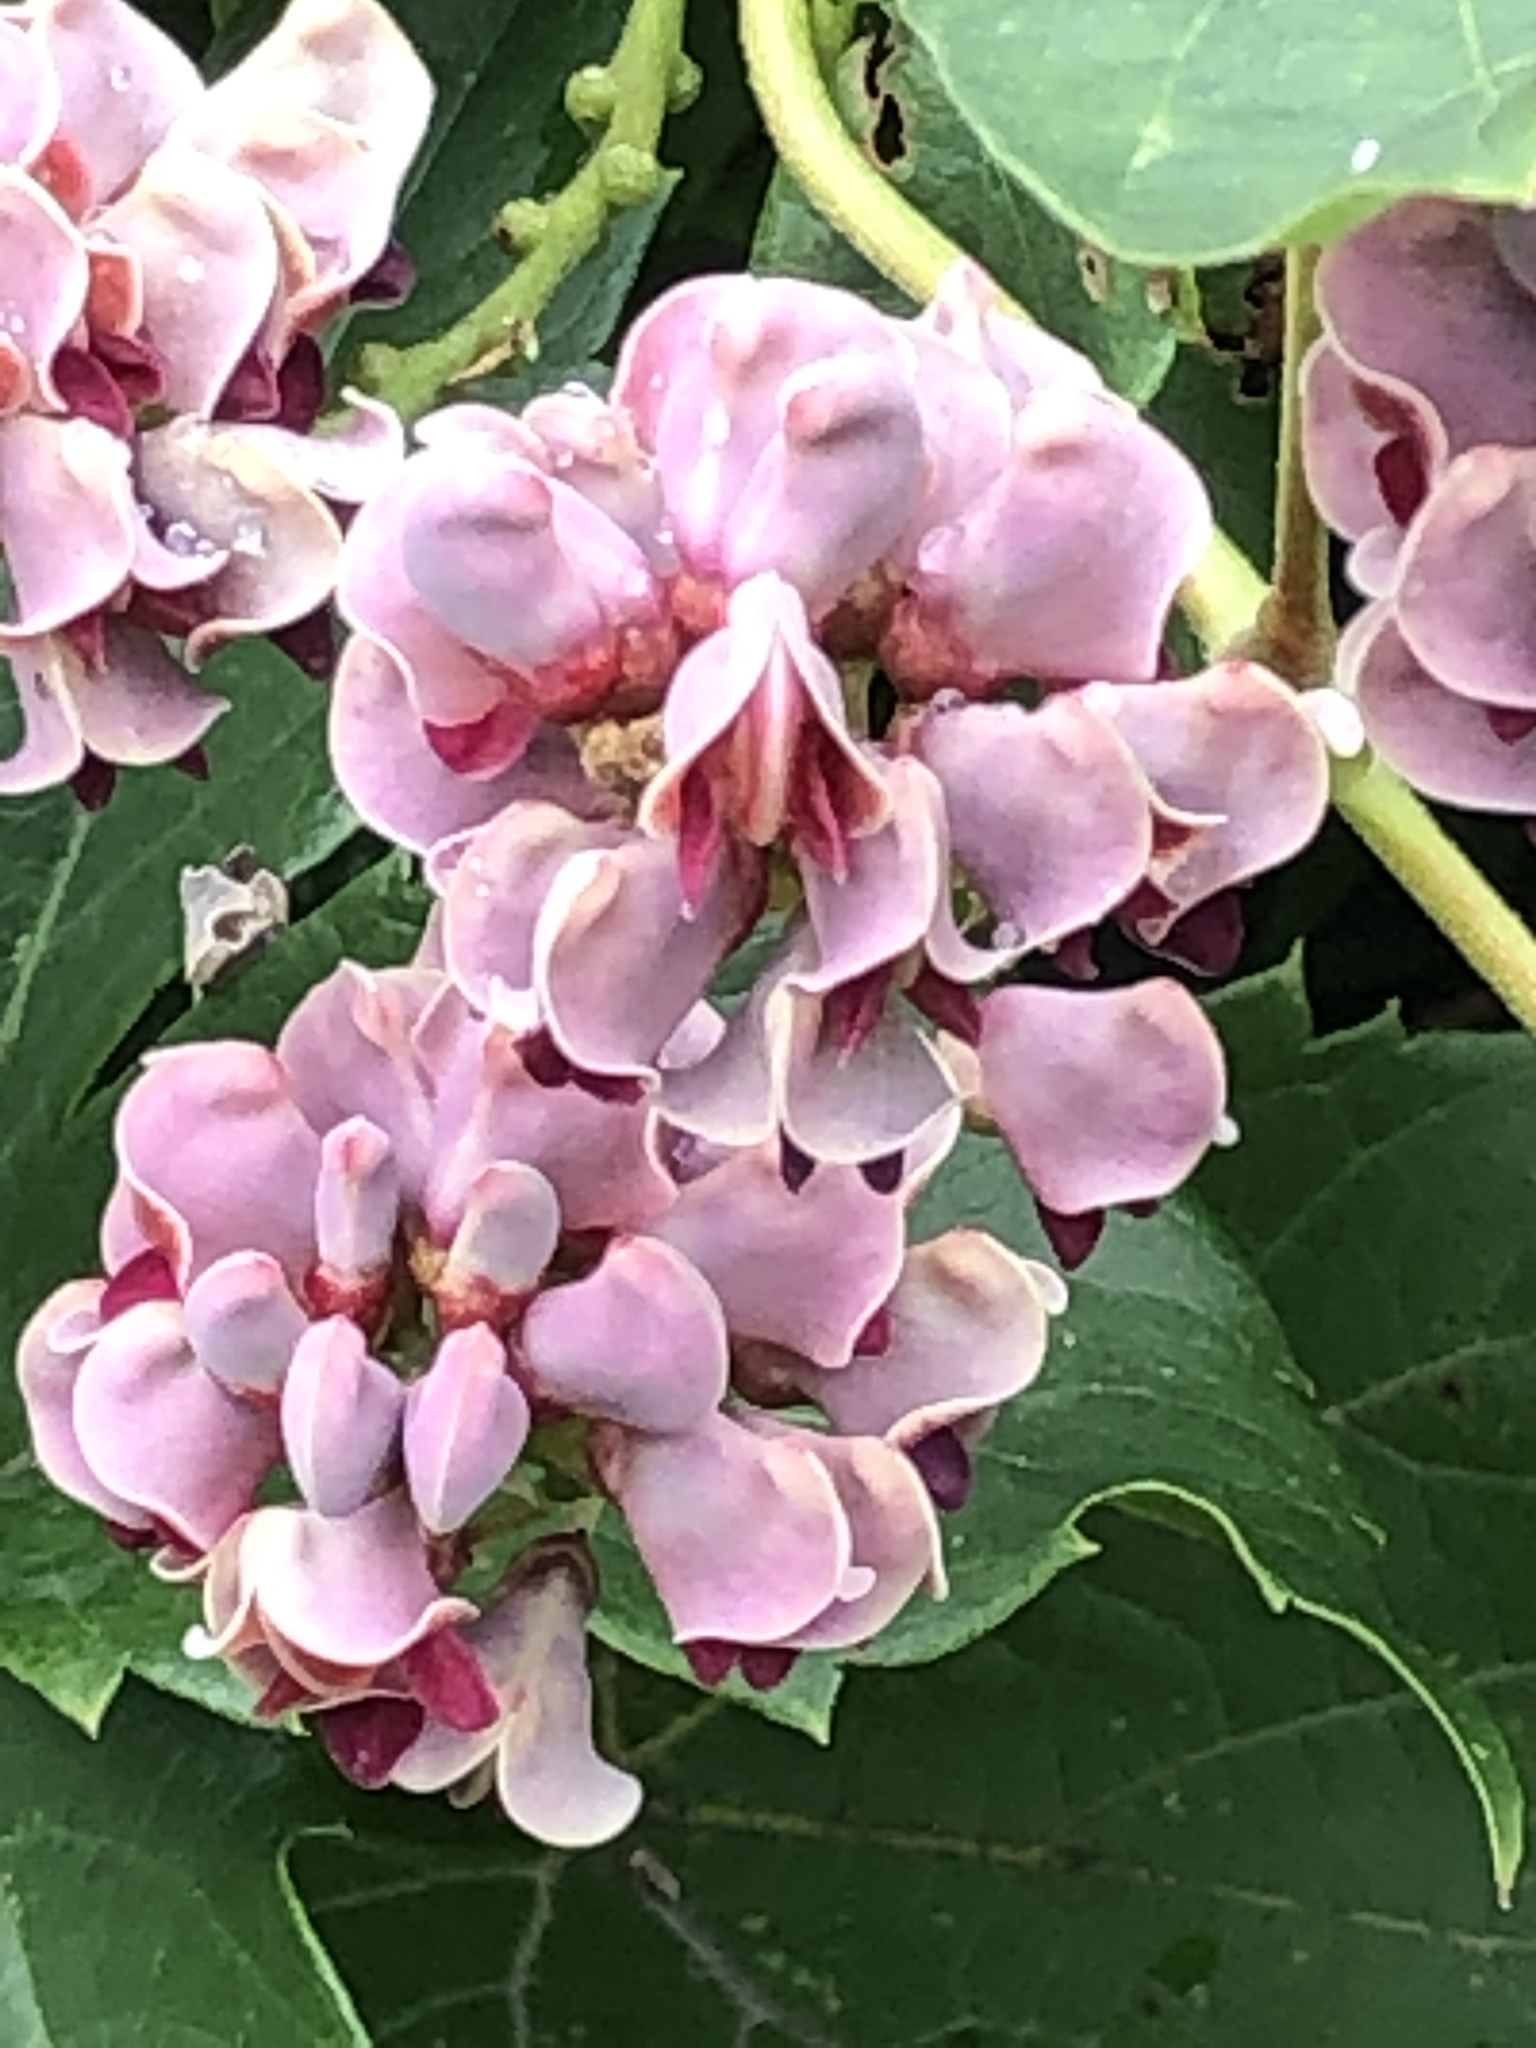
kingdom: Plantae
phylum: Tracheophyta
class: Magnoliopsida
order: Fabales
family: Fabaceae
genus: Apios
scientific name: Apios americana
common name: American potato-bean
